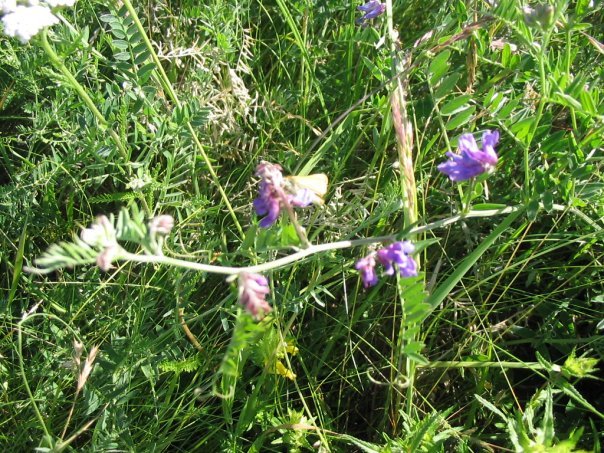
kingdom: Plantae
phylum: Tracheophyta
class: Magnoliopsida
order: Fabales
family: Fabaceae
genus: Vicia
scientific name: Vicia cracca
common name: Bird vetch
